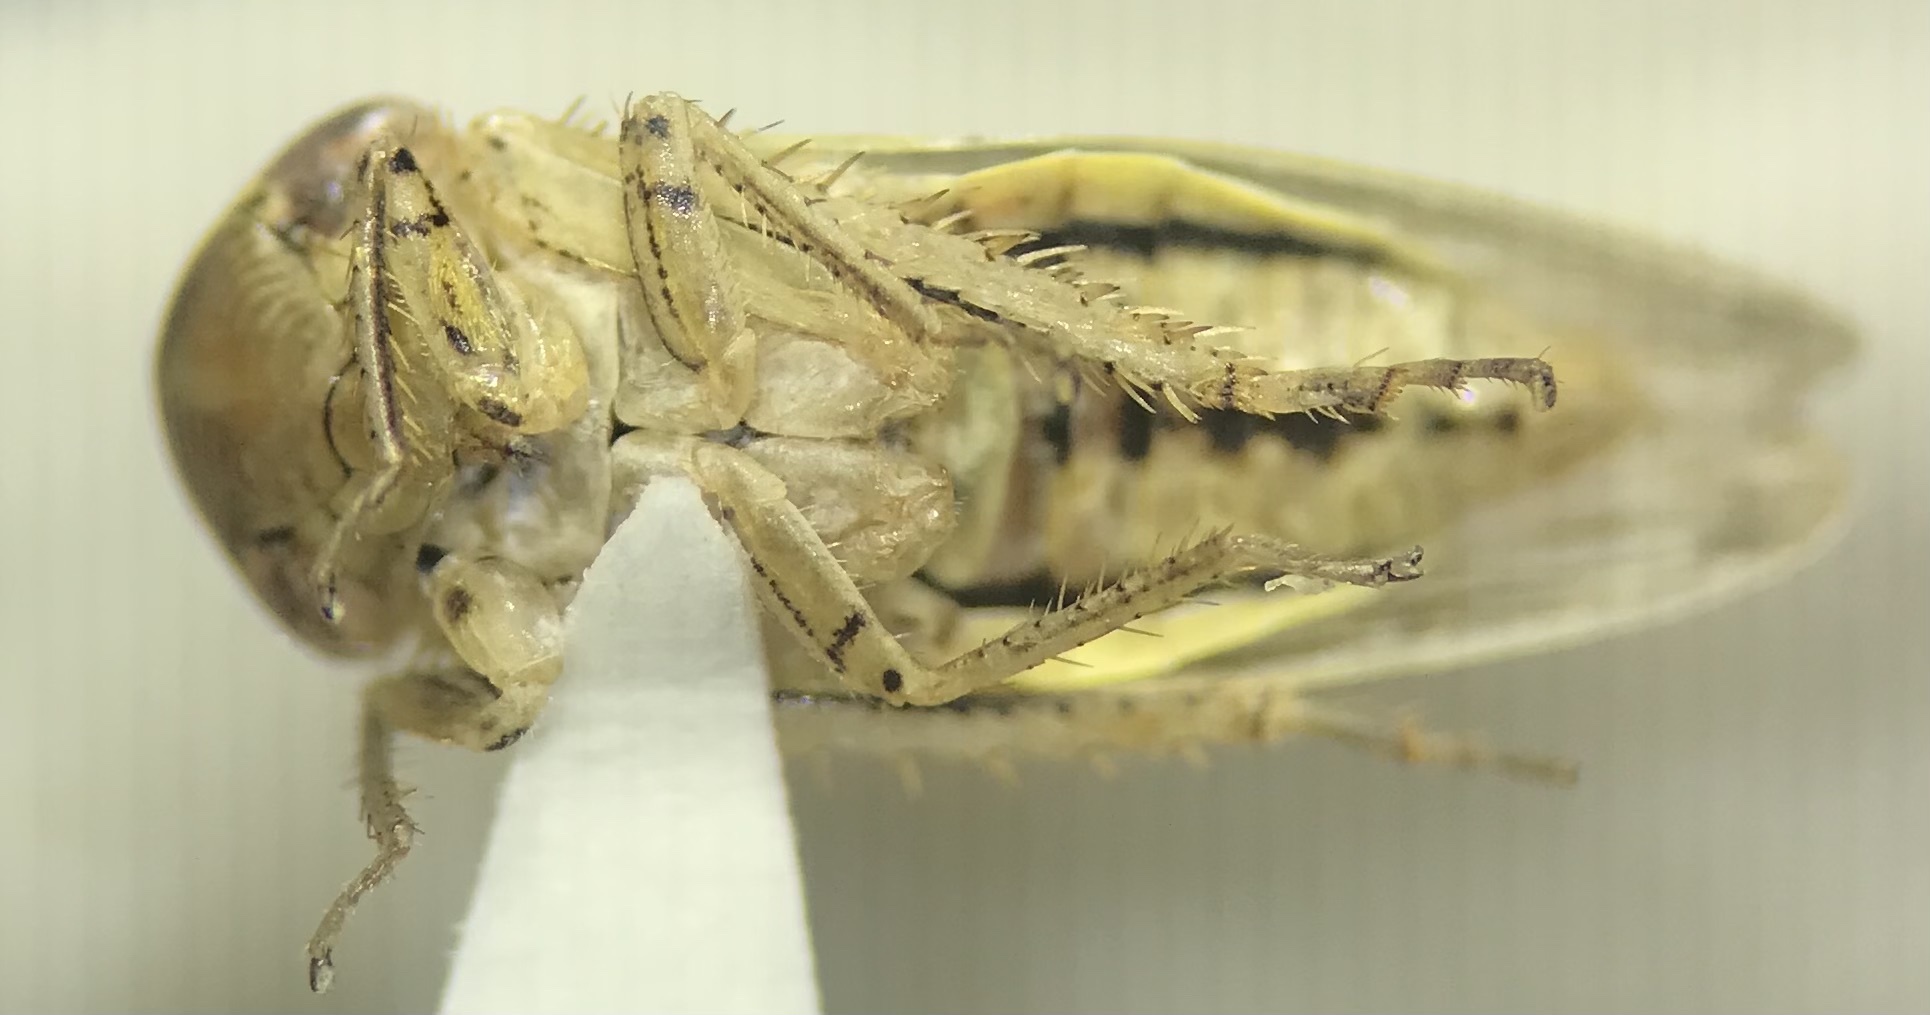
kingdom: Animalia
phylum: Arthropoda
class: Insecta
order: Hemiptera
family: Cicadellidae
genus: Athysanus
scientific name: Athysanus argentarius
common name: Silver leafhopper
